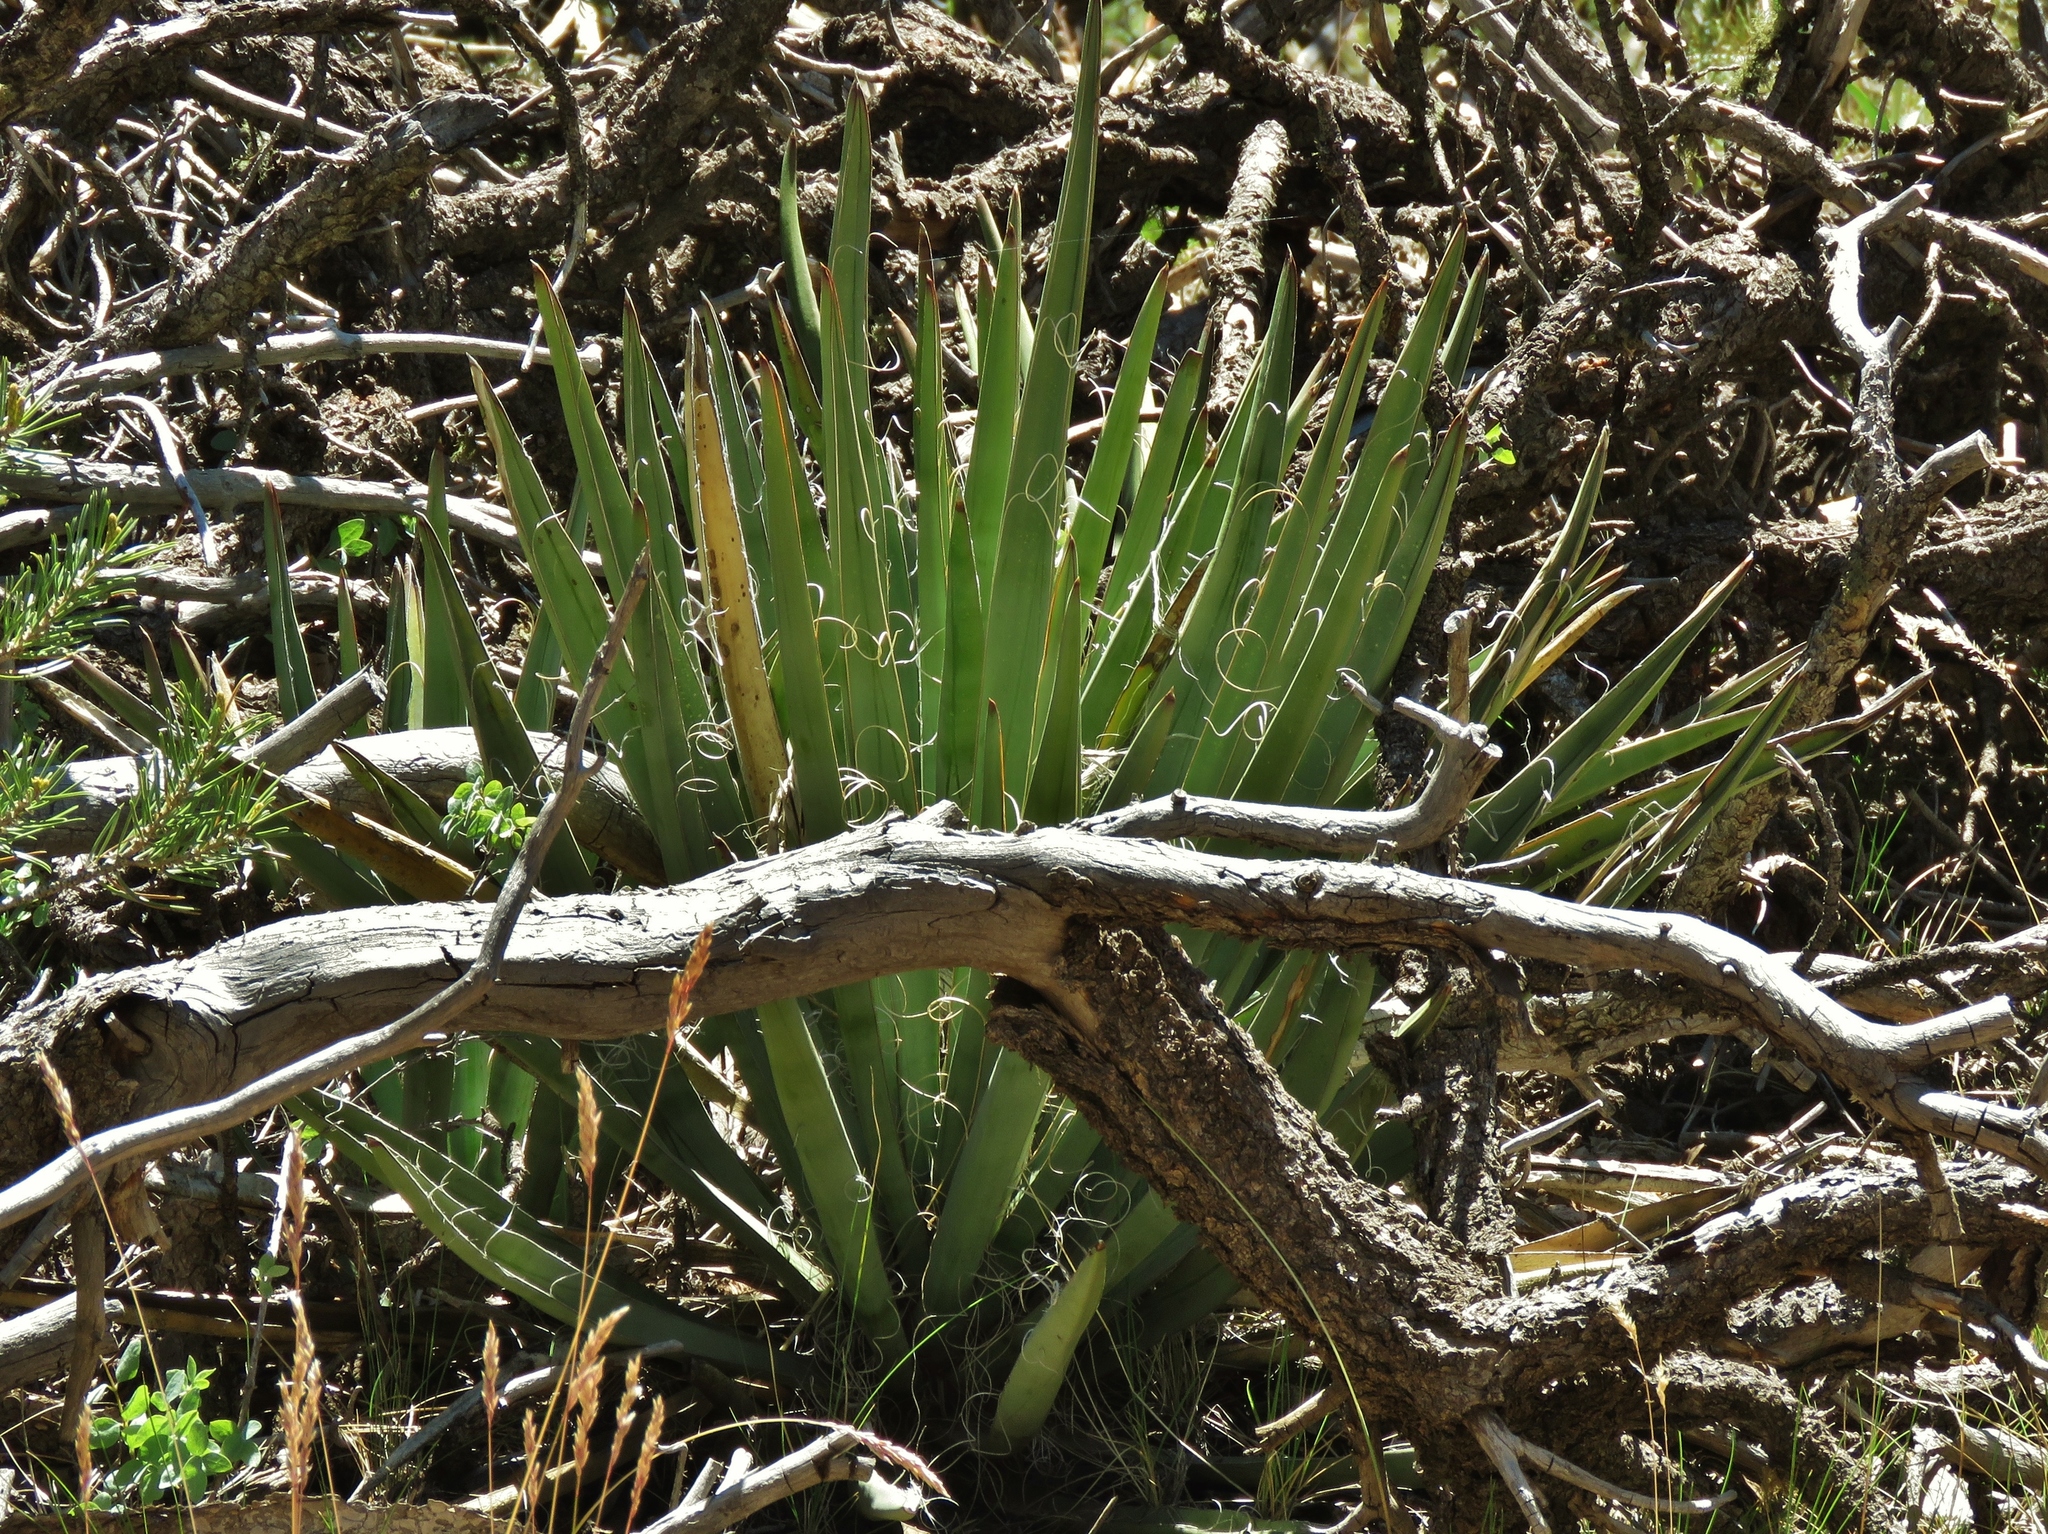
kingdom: Plantae
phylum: Tracheophyta
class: Liliopsida
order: Asparagales
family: Asparagaceae
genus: Yucca
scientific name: Yucca baccata
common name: Banana yucca
